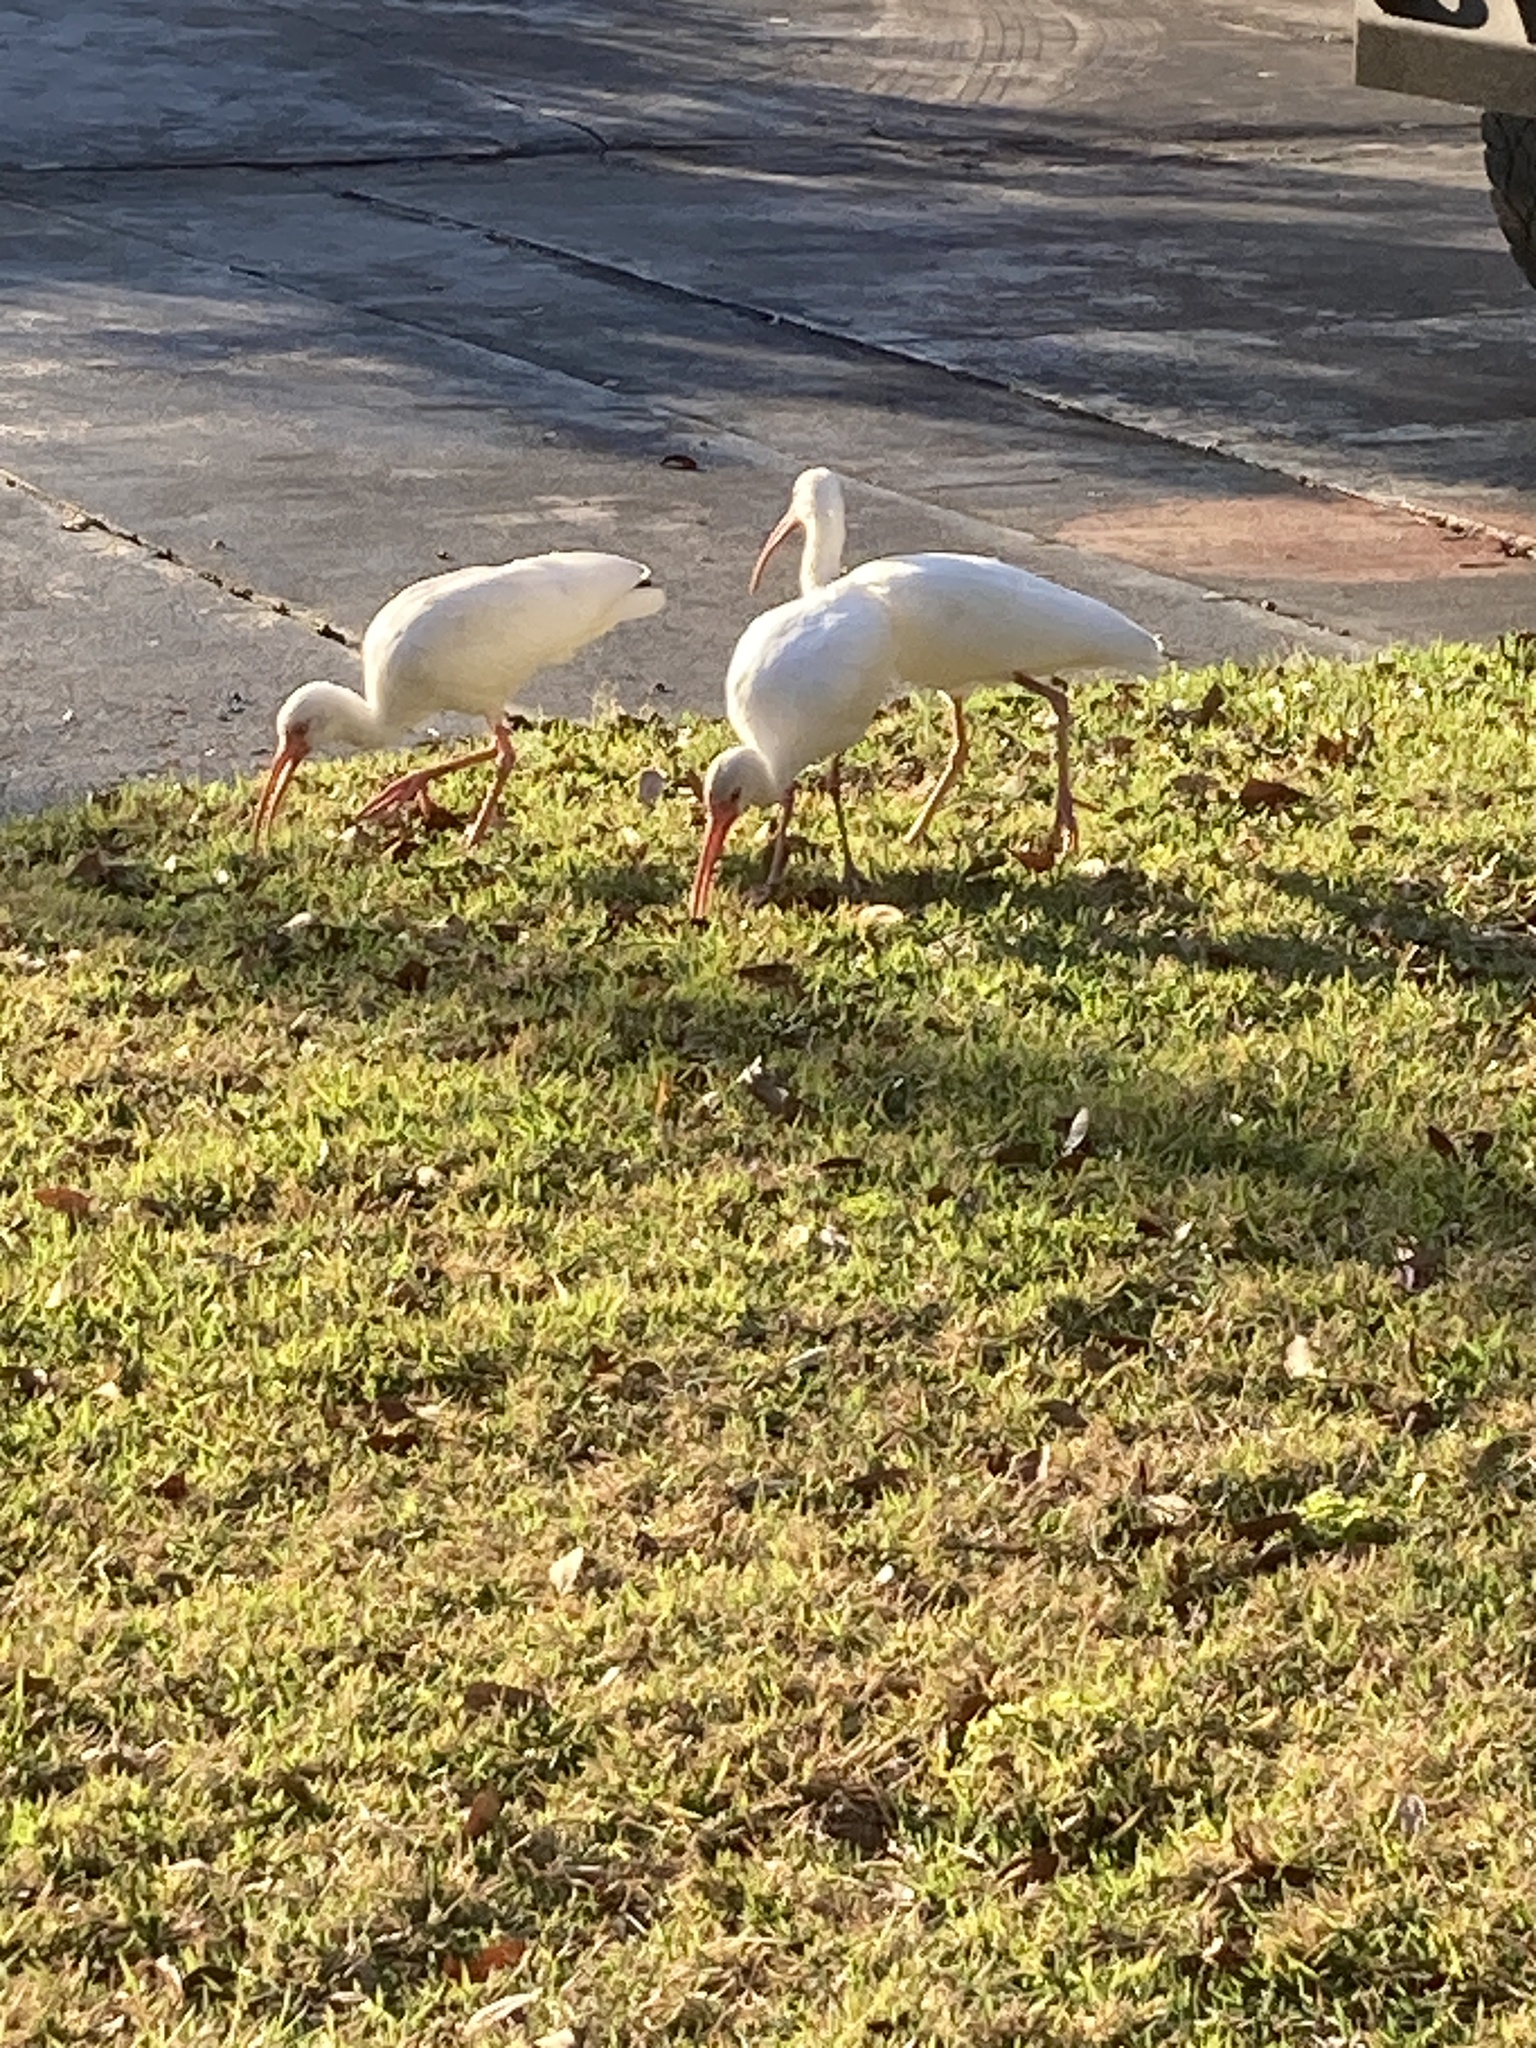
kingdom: Animalia
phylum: Chordata
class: Aves
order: Pelecaniformes
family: Threskiornithidae
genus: Eudocimus
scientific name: Eudocimus albus
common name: White ibis
